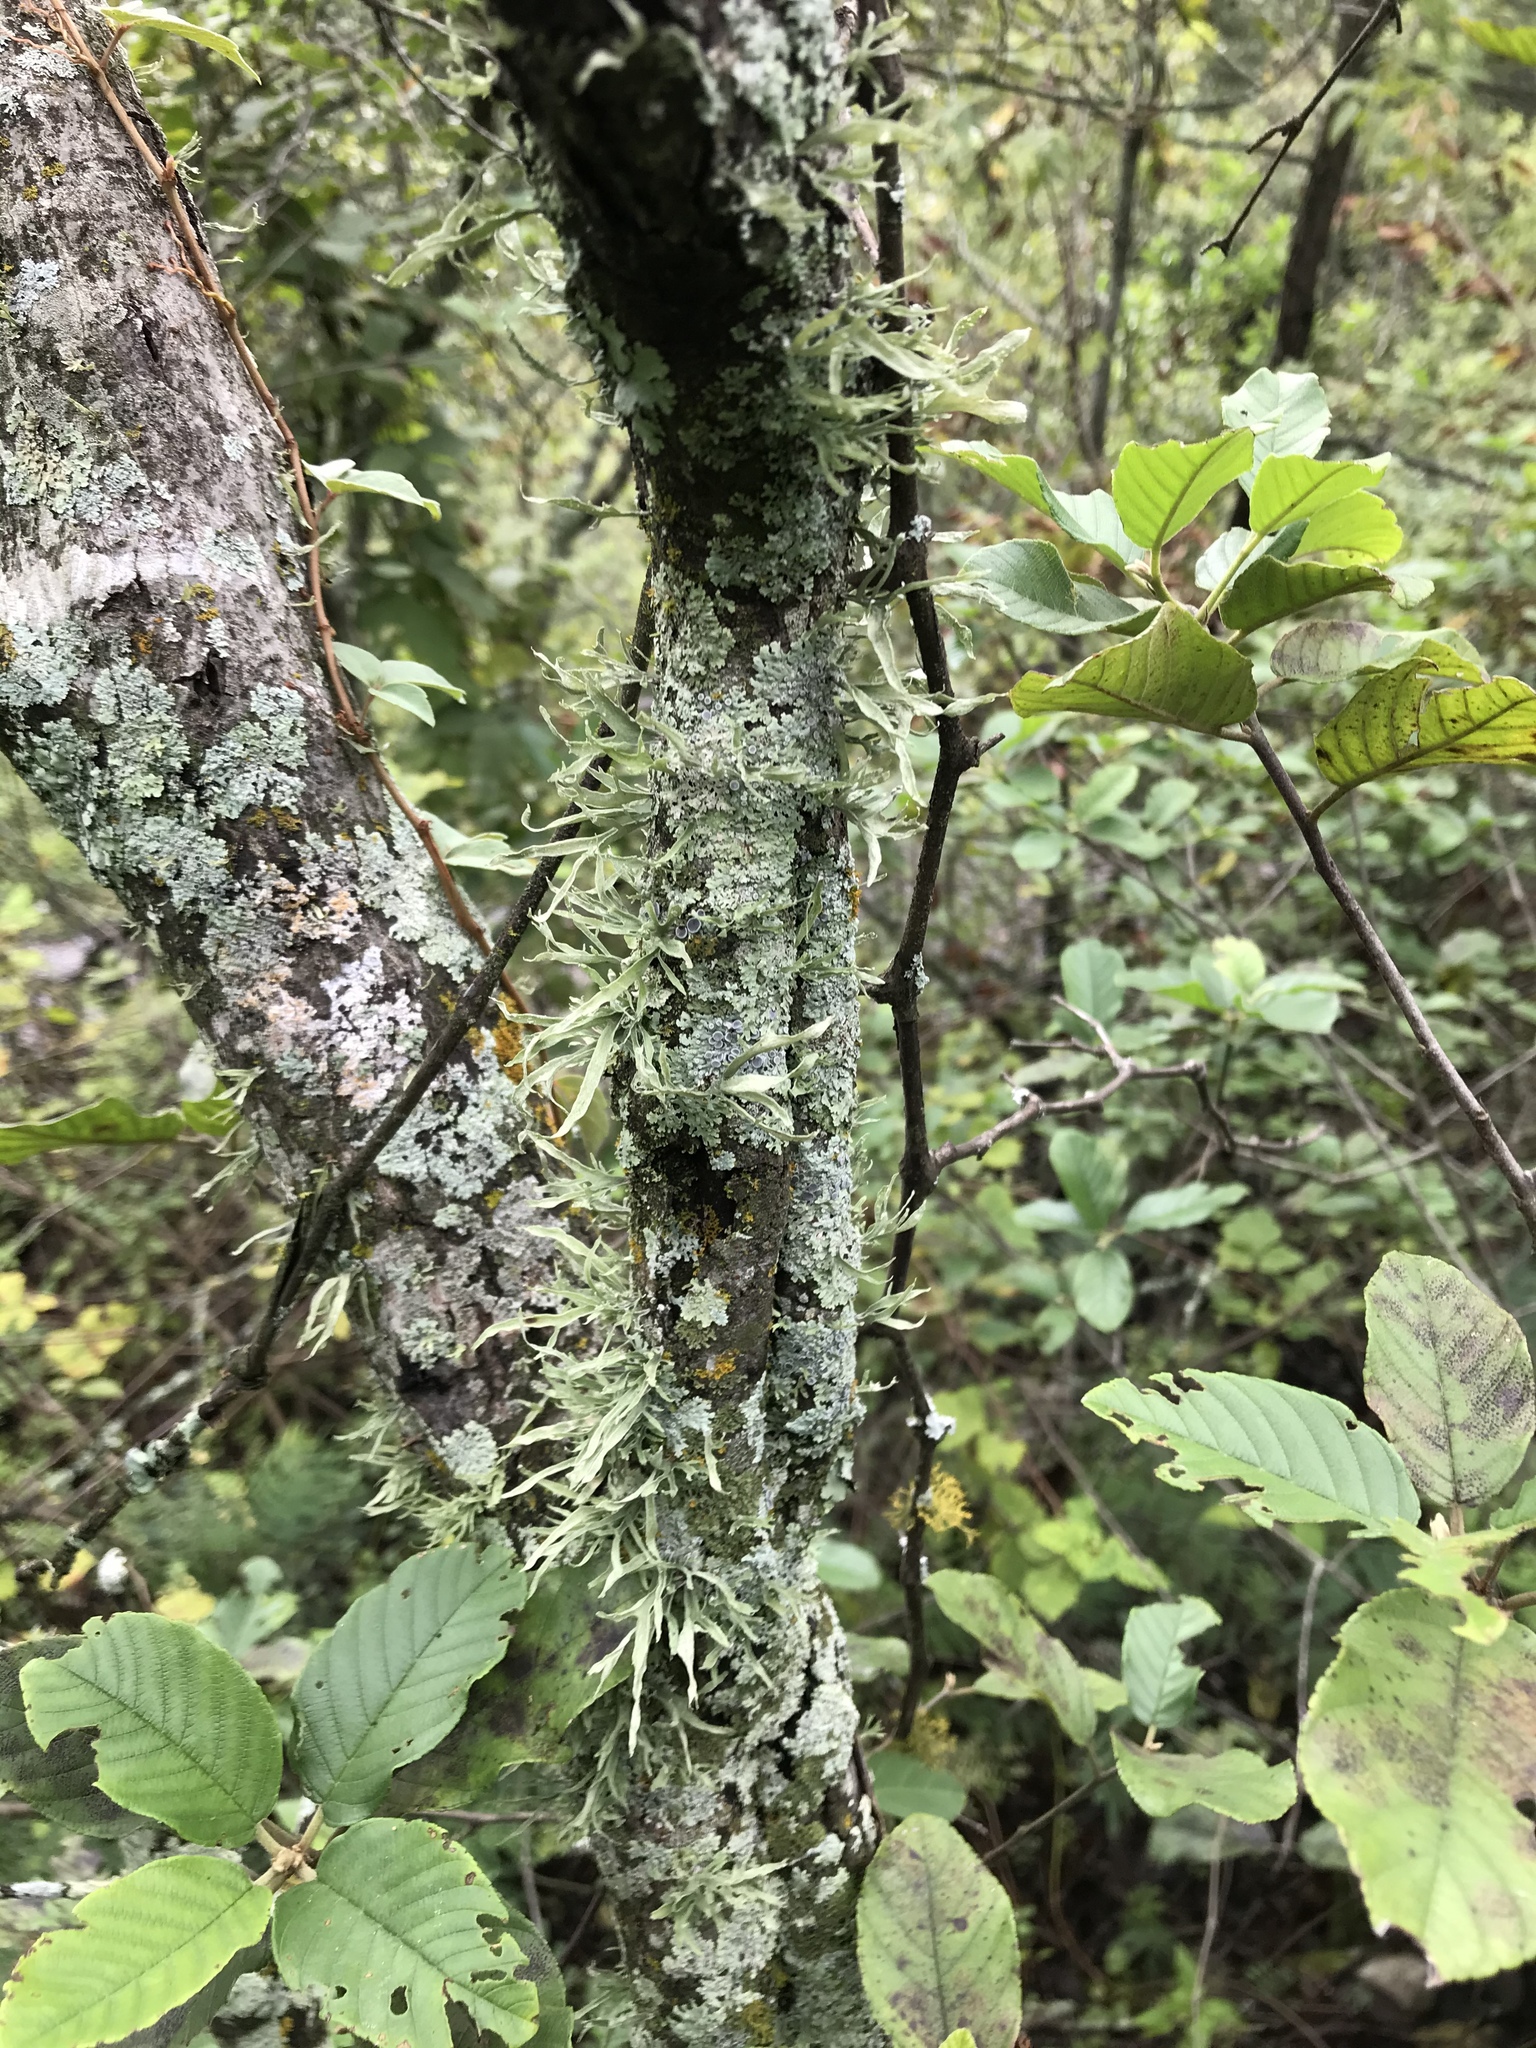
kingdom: Fungi
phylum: Ascomycota
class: Lecanoromycetes
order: Lecanorales
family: Ramalinaceae
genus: Ramalina
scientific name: Ramalina celastri
